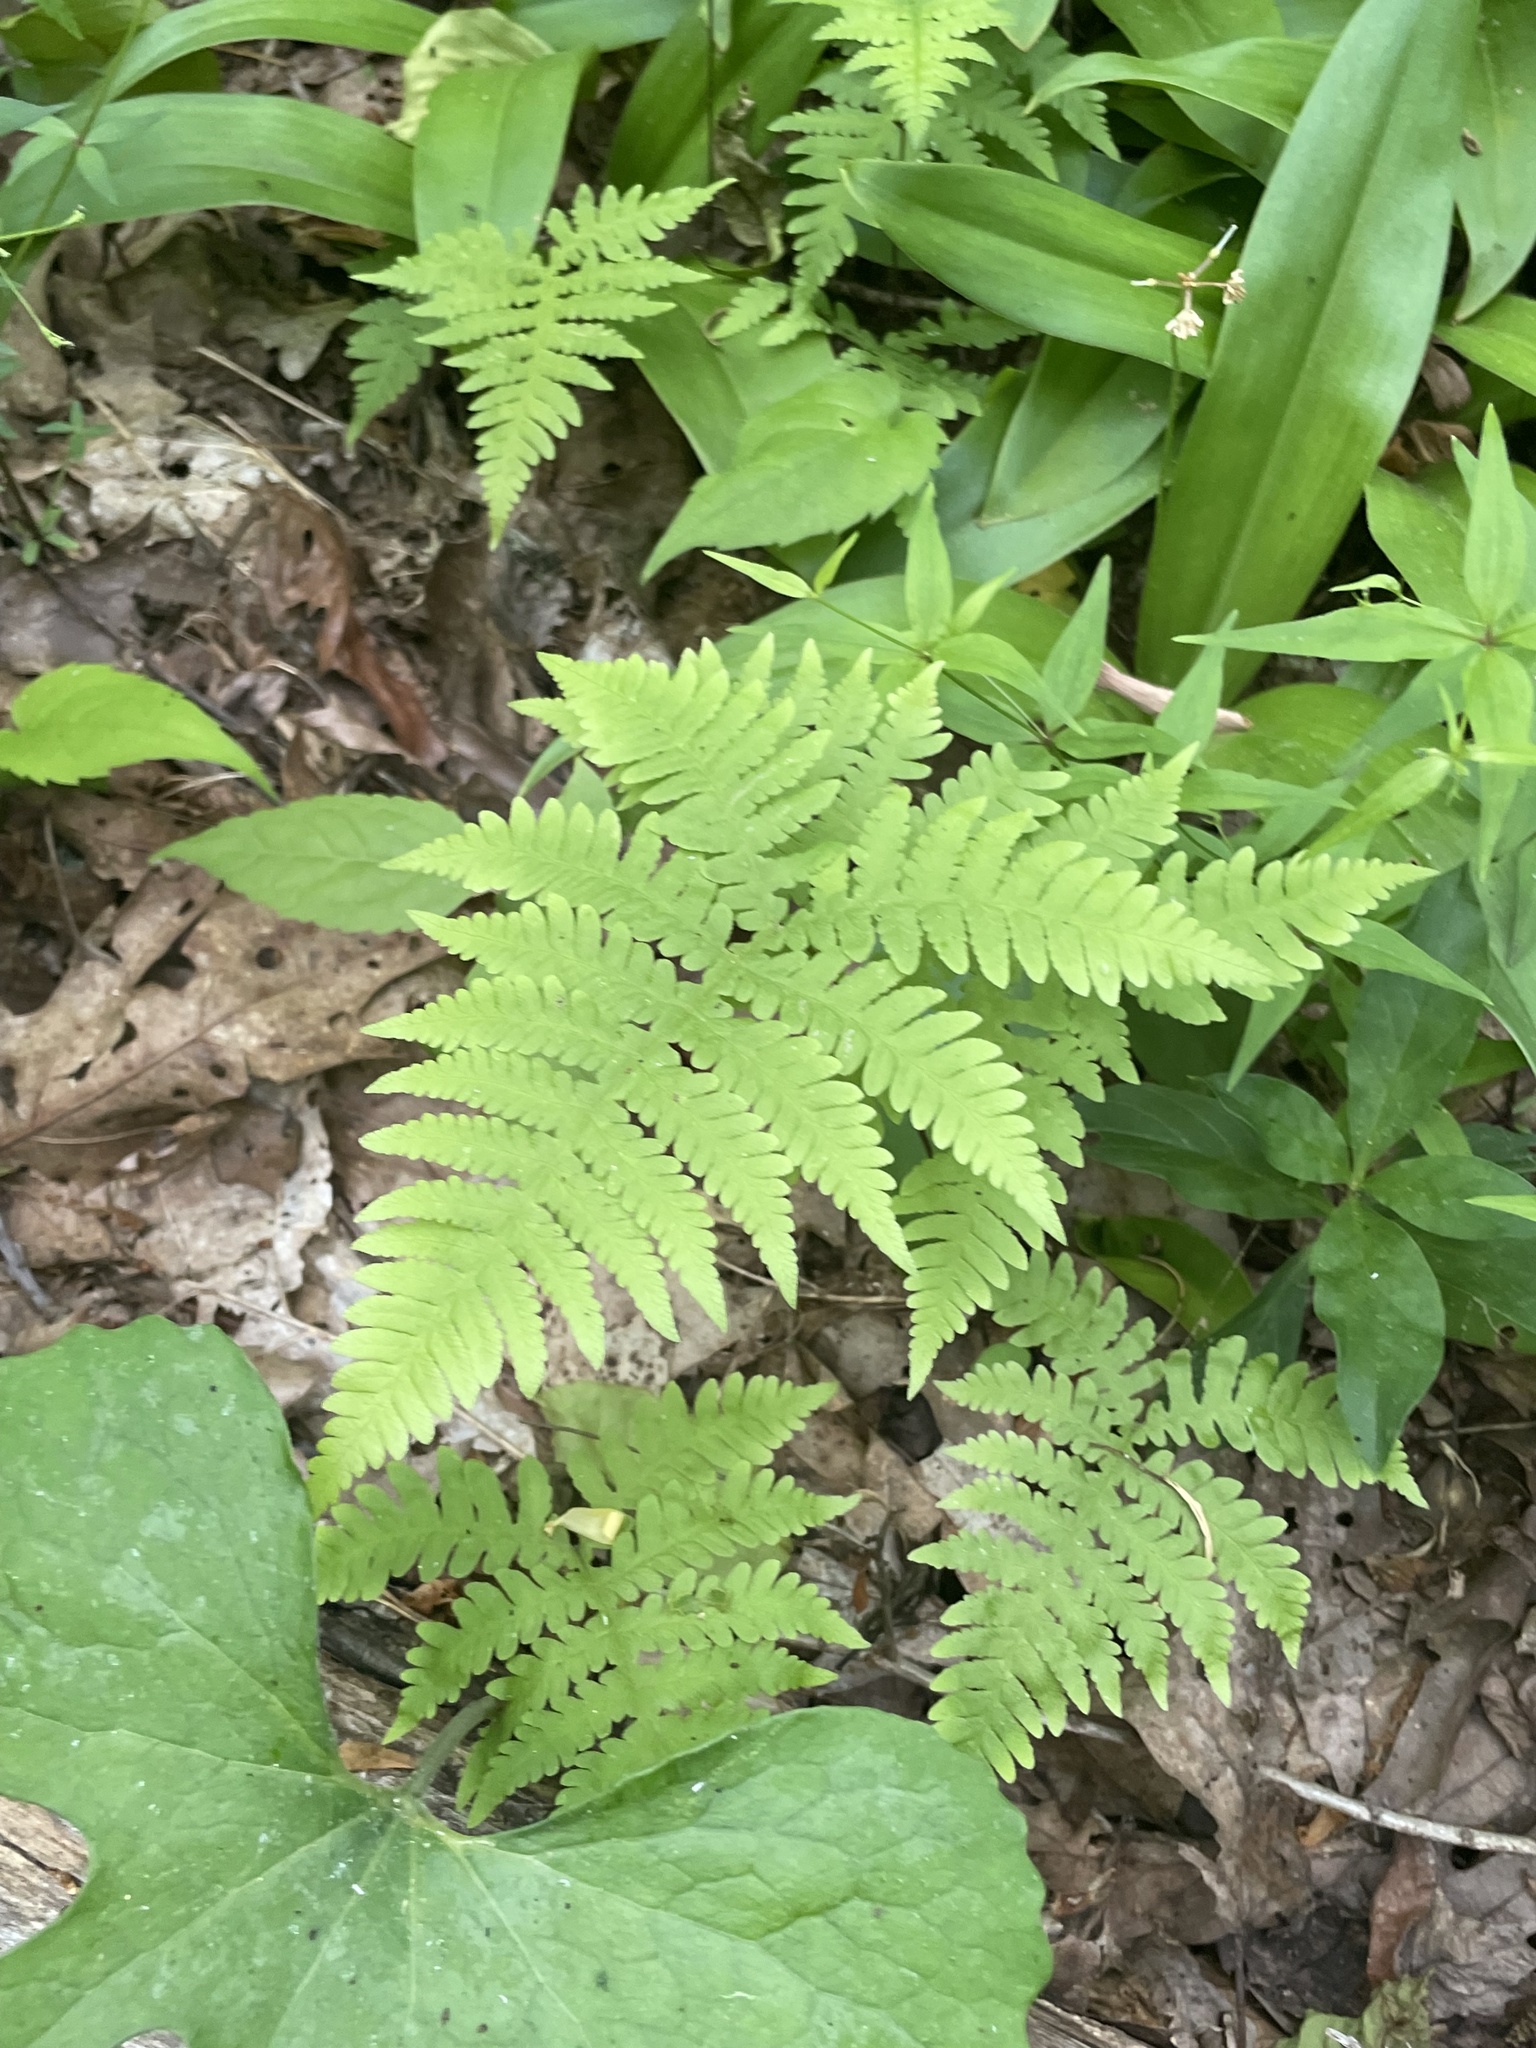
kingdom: Plantae
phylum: Tracheophyta
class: Polypodiopsida
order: Polypodiales
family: Thelypteridaceae
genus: Phegopteris
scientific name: Phegopteris hexagonoptera
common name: Broad beech fern
